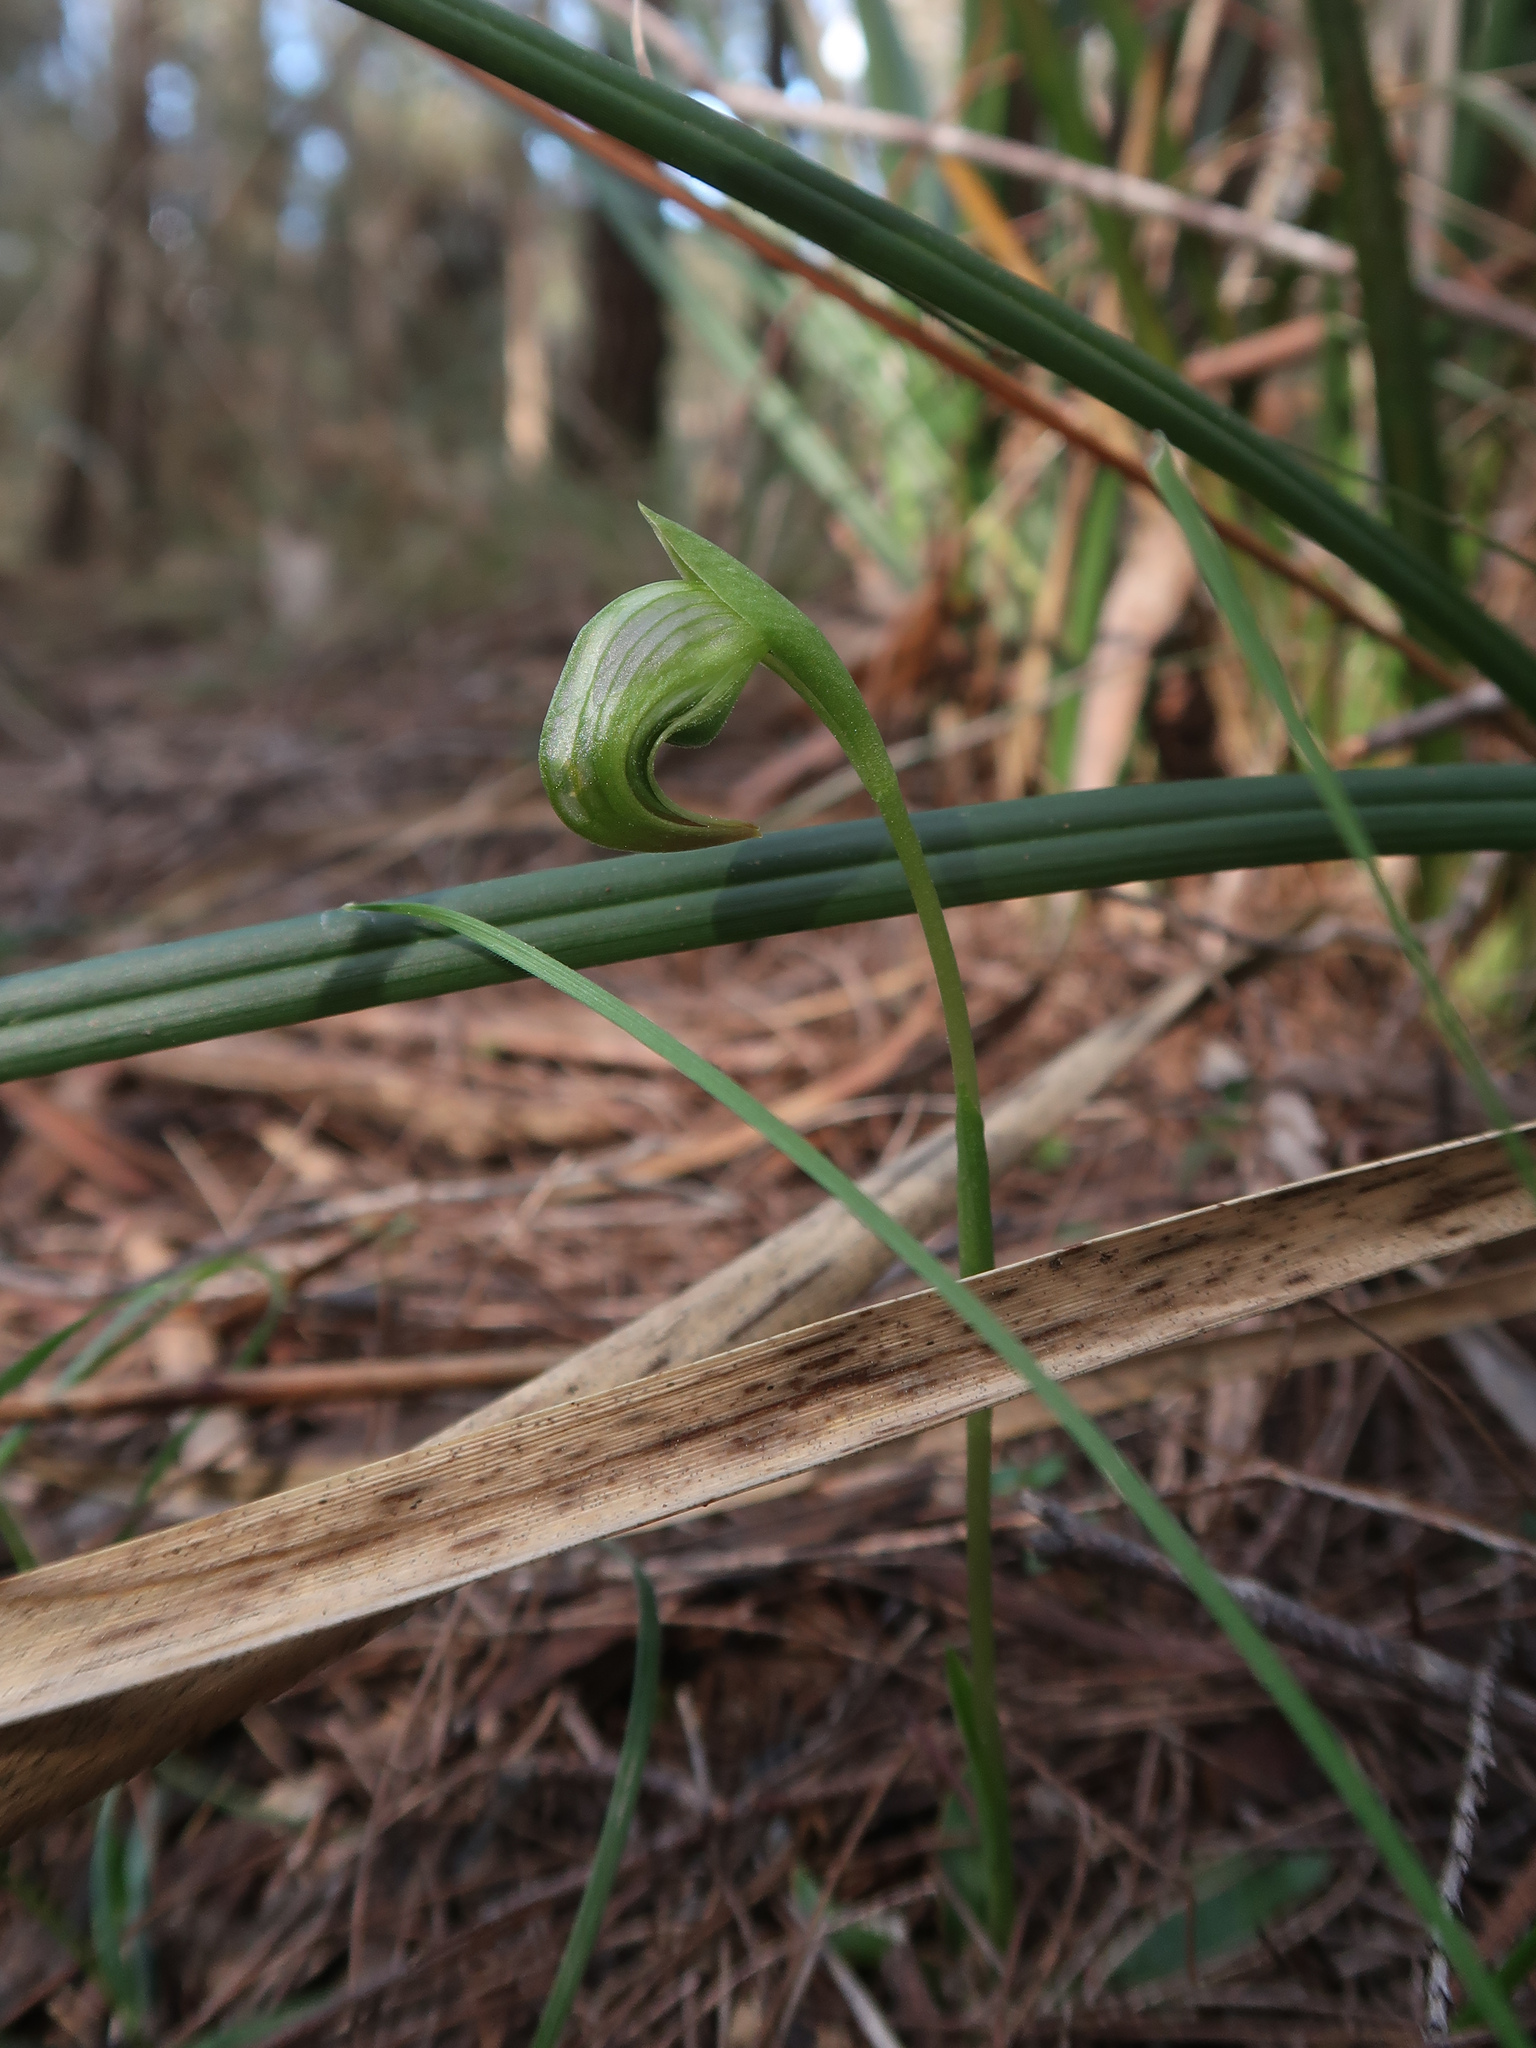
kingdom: Plantae
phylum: Tracheophyta
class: Liliopsida
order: Asparagales
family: Orchidaceae
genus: Pterostylis
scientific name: Pterostylis nutans
